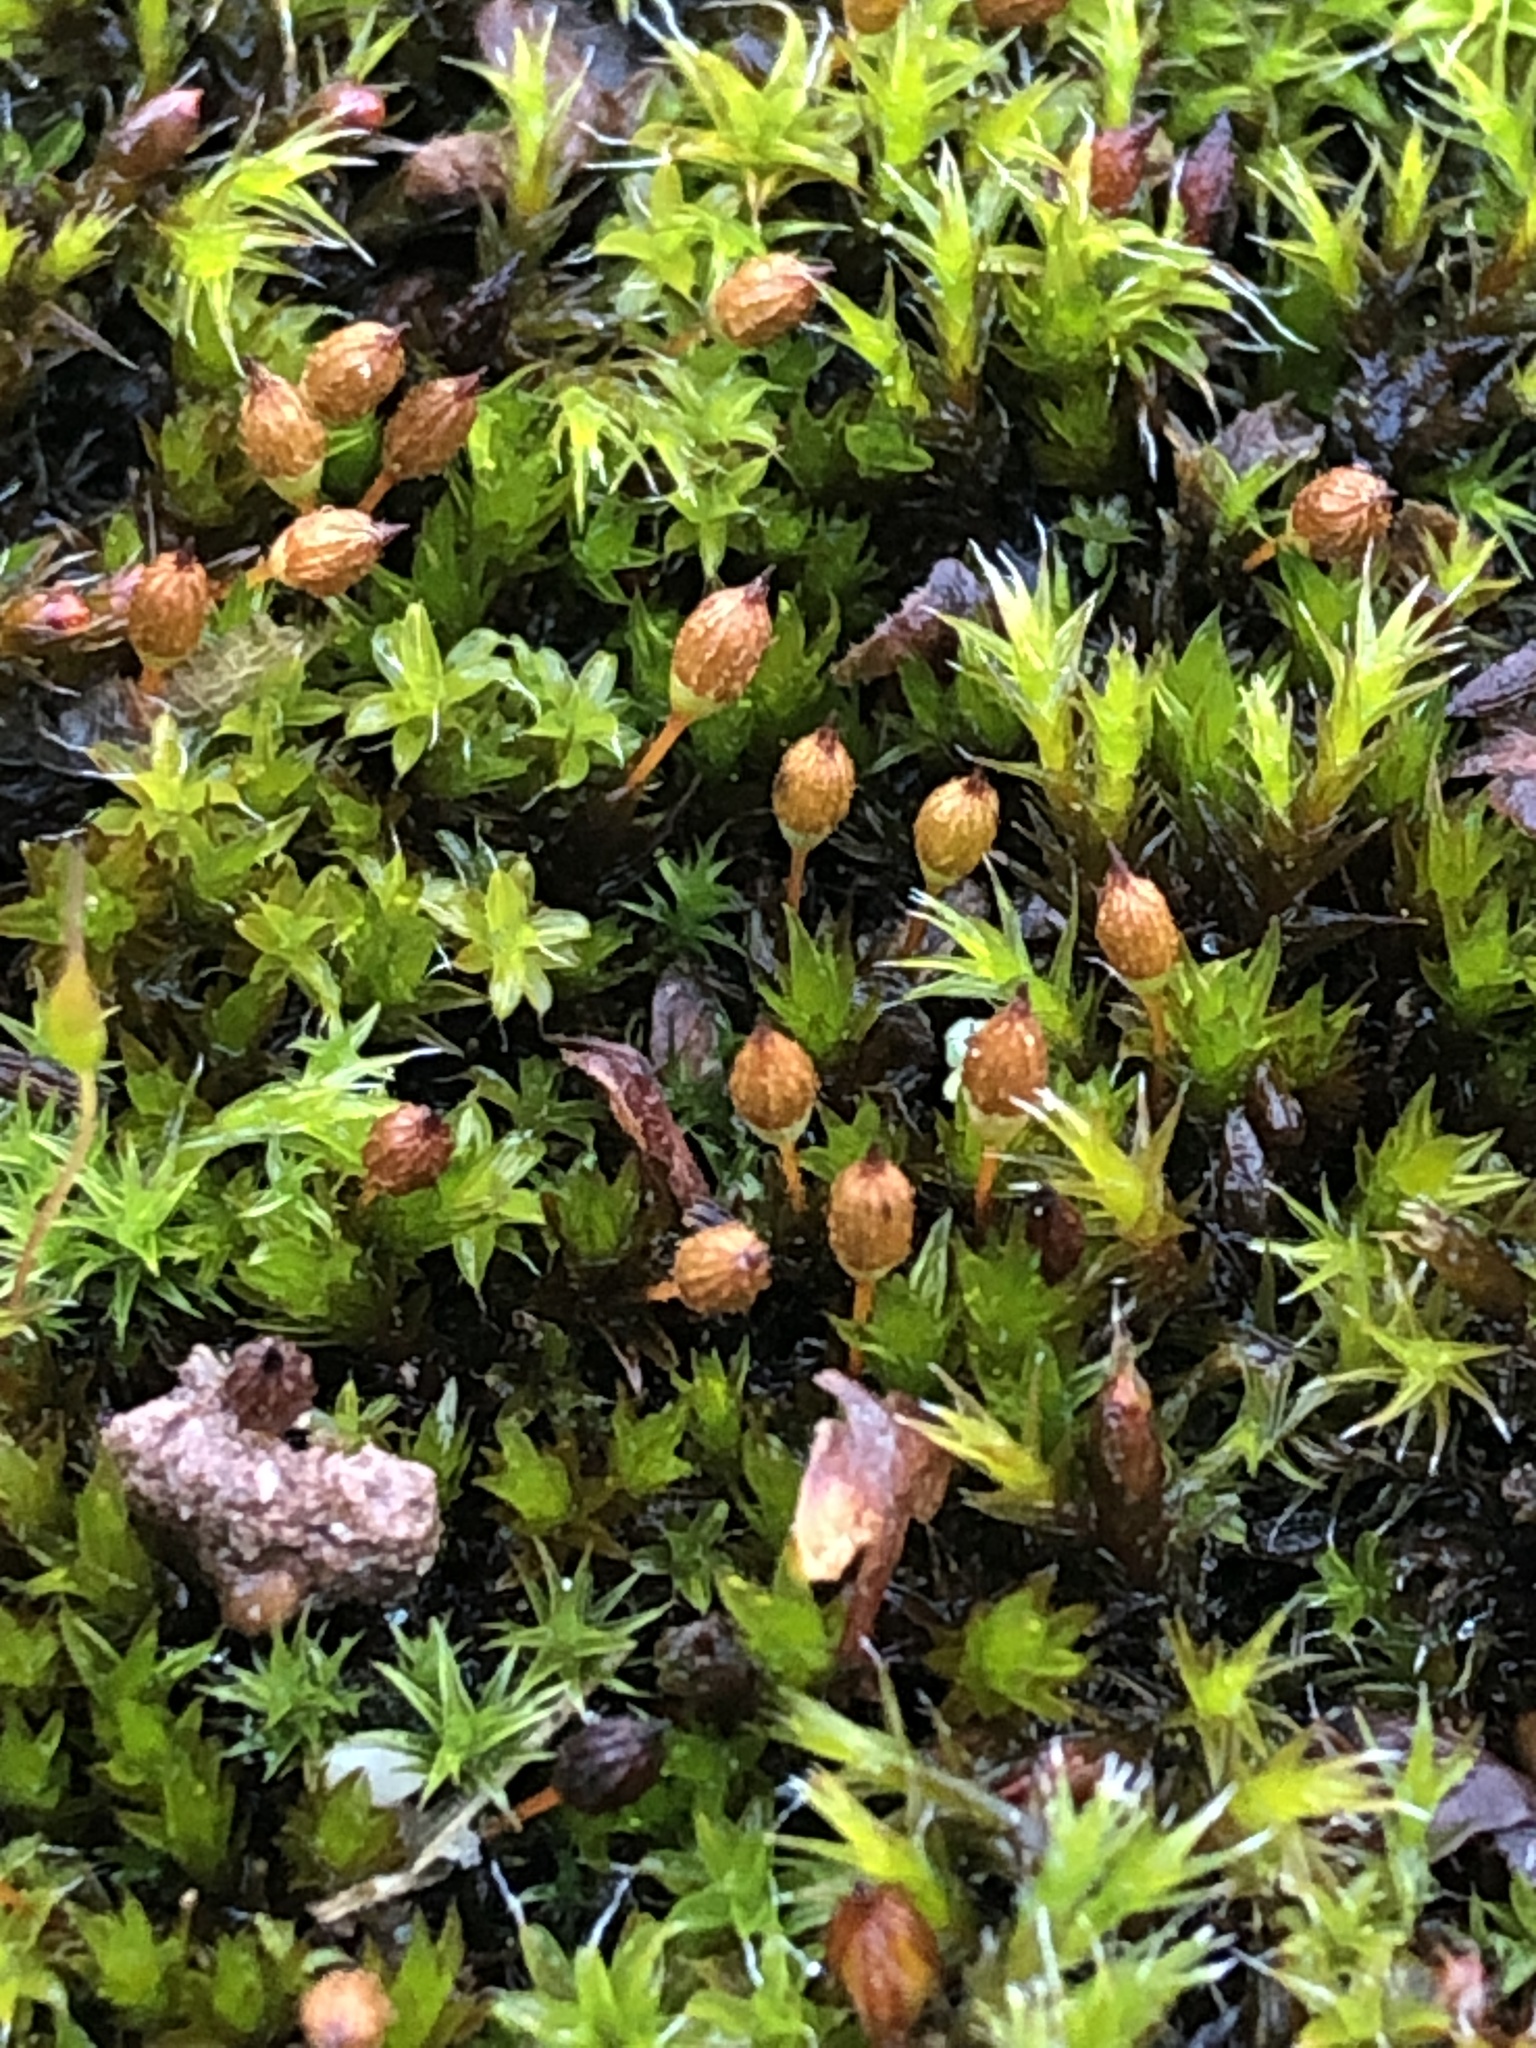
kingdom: Plantae
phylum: Bryophyta
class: Bryopsida
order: Orthotrichales
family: Orthotrichaceae
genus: Orthotrichum
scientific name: Orthotrichum anomalum
